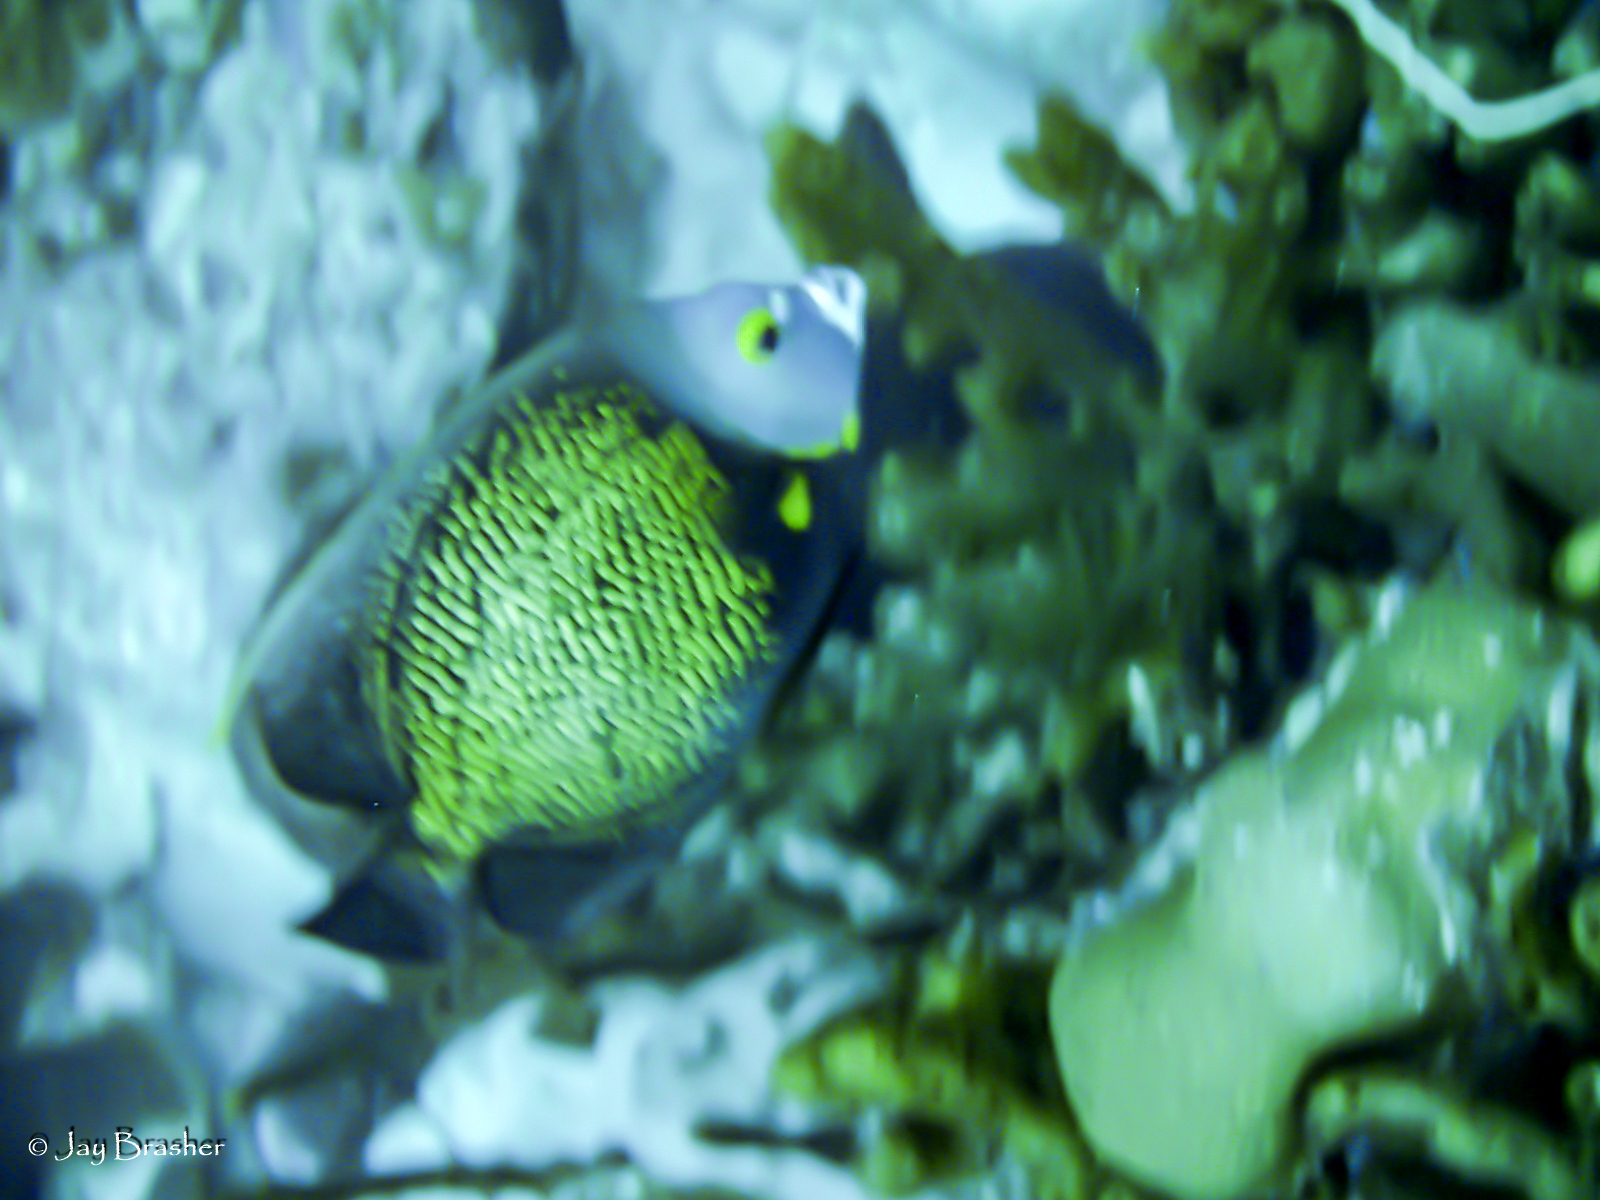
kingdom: Animalia
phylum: Chordata
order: Perciformes
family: Pomacanthidae
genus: Pomacanthus
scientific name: Pomacanthus paru
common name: French angelfish
